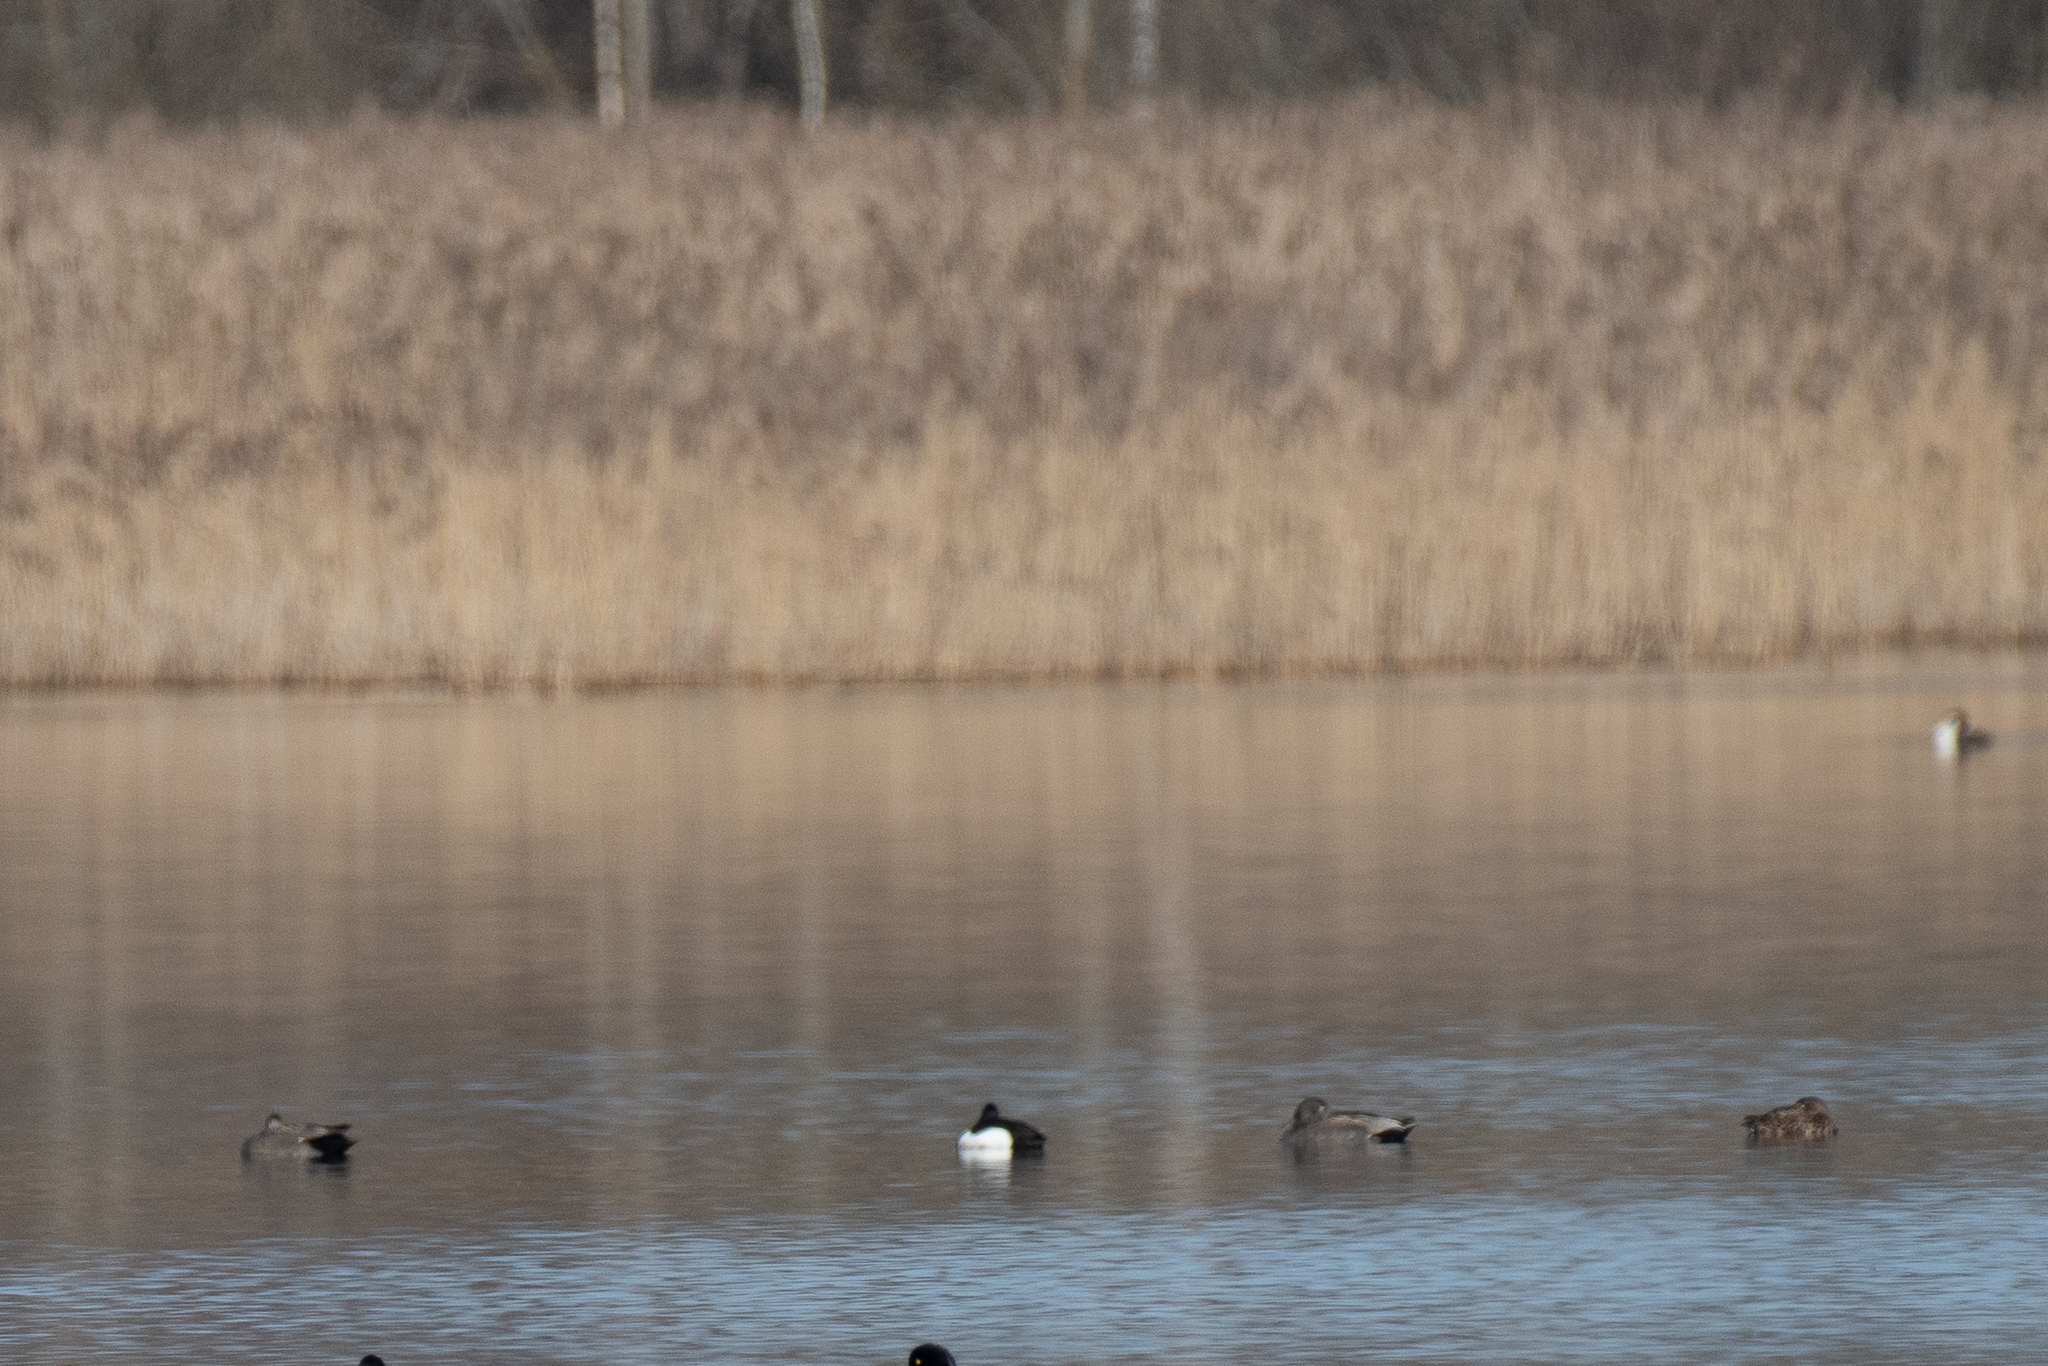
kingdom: Animalia
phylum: Chordata
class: Aves
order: Anseriformes
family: Anatidae
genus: Mareca
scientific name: Mareca strepera
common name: Gadwall
